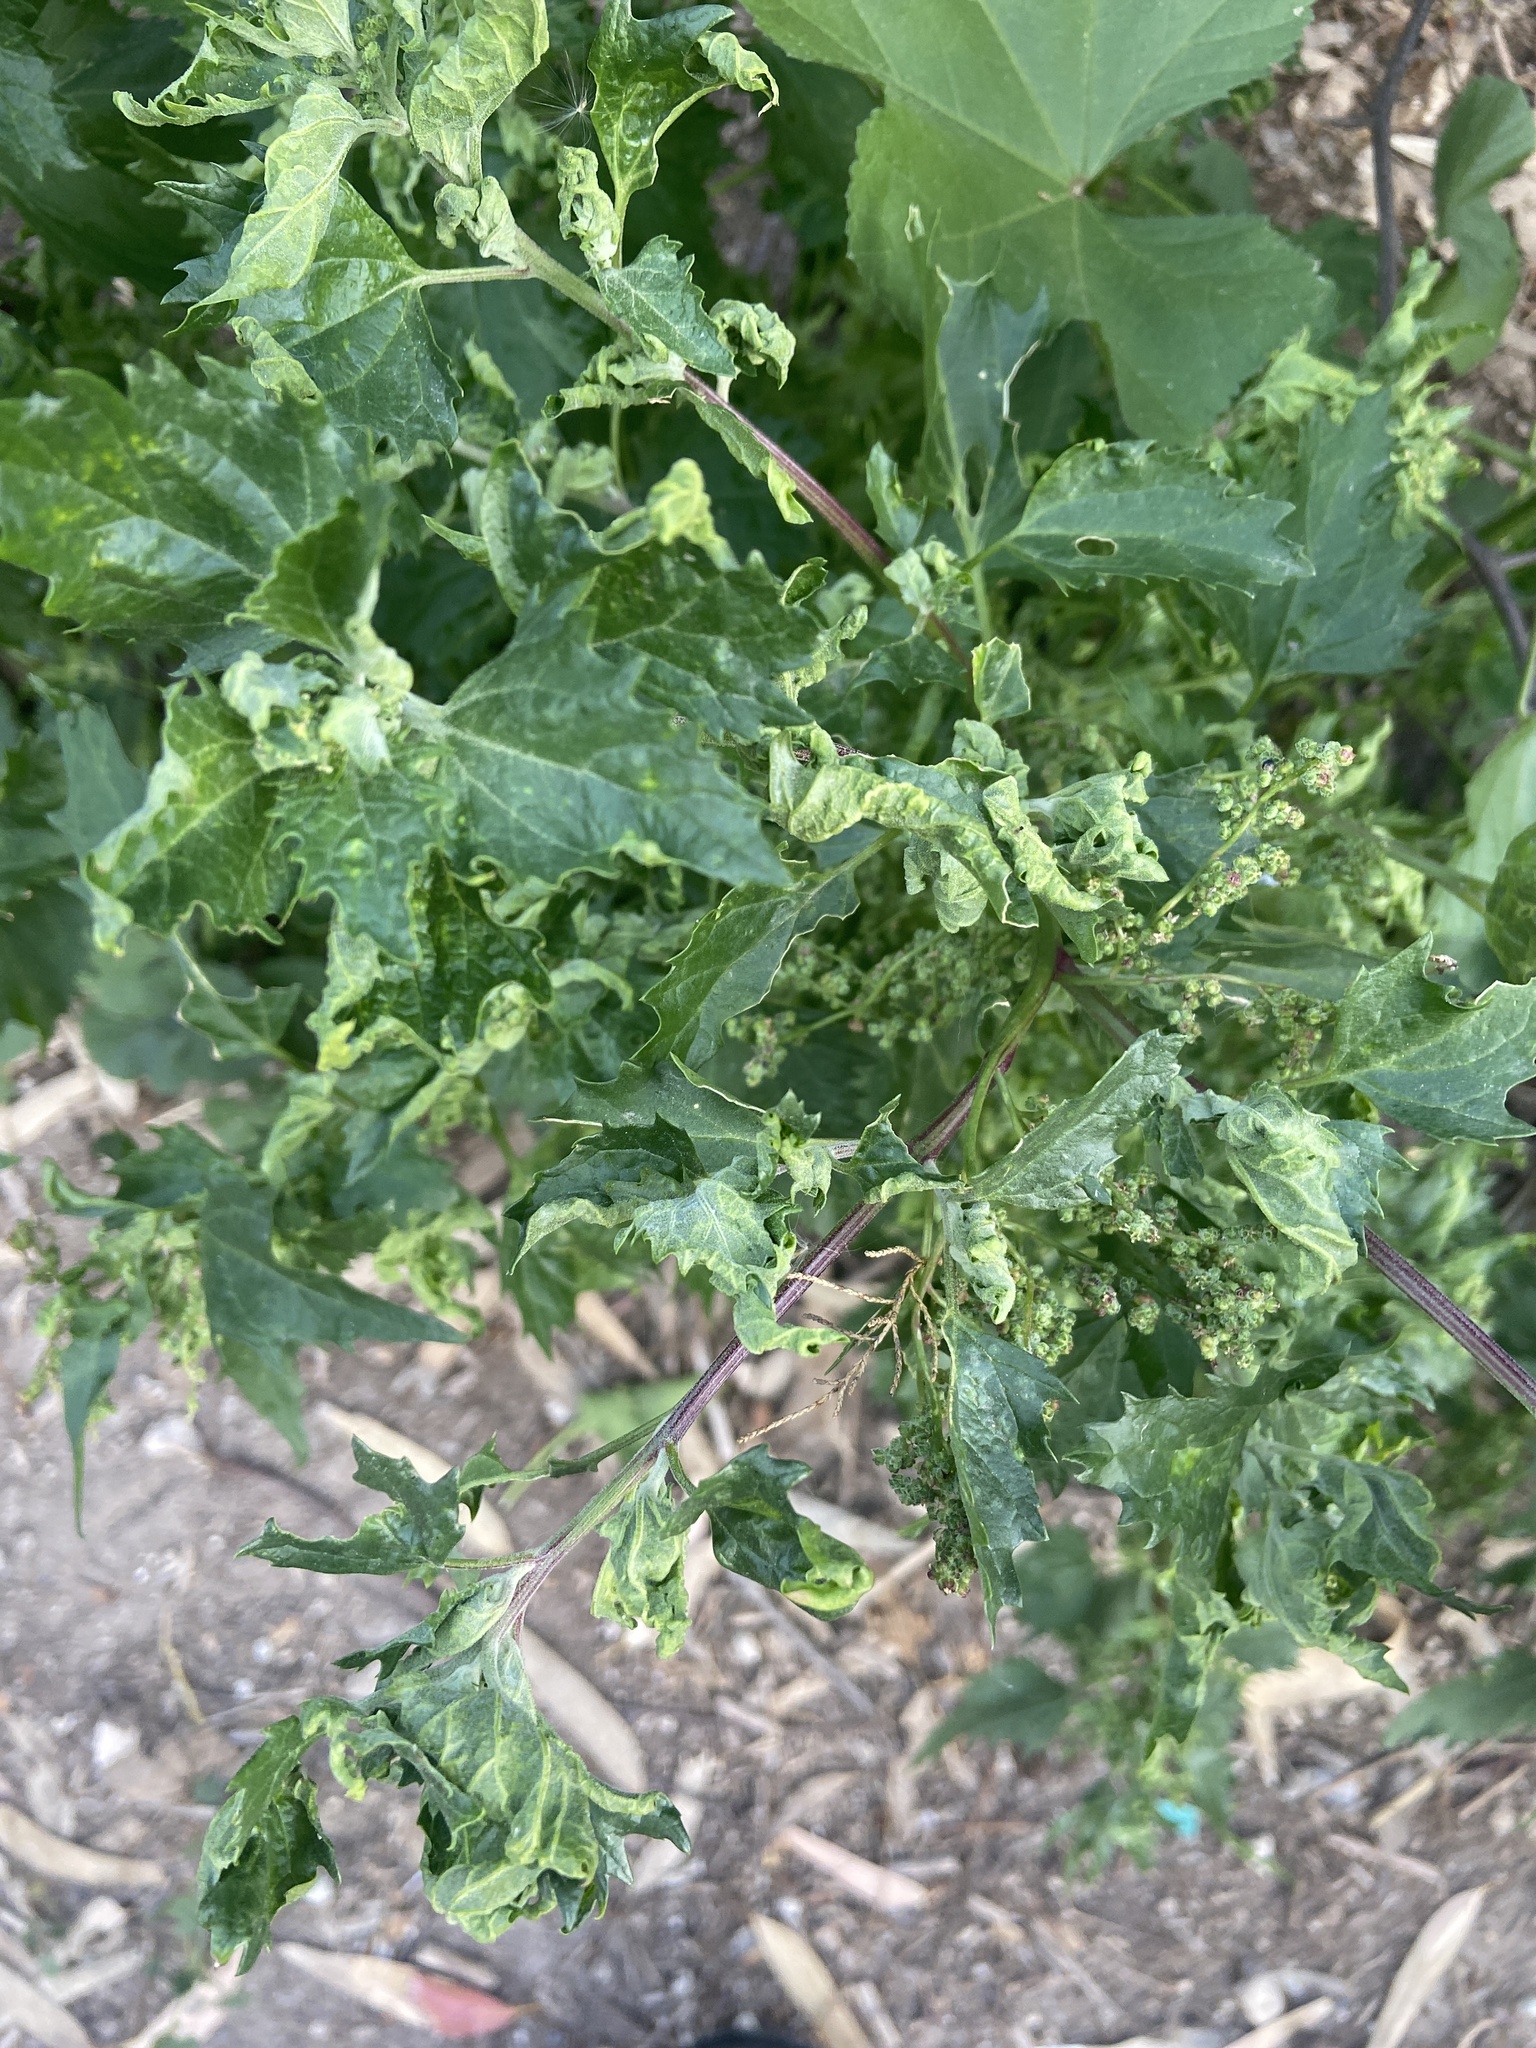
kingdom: Plantae
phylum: Tracheophyta
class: Magnoliopsida
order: Caryophyllales
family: Amaranthaceae
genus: Chenopodiastrum
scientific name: Chenopodiastrum murale
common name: Sowbane
